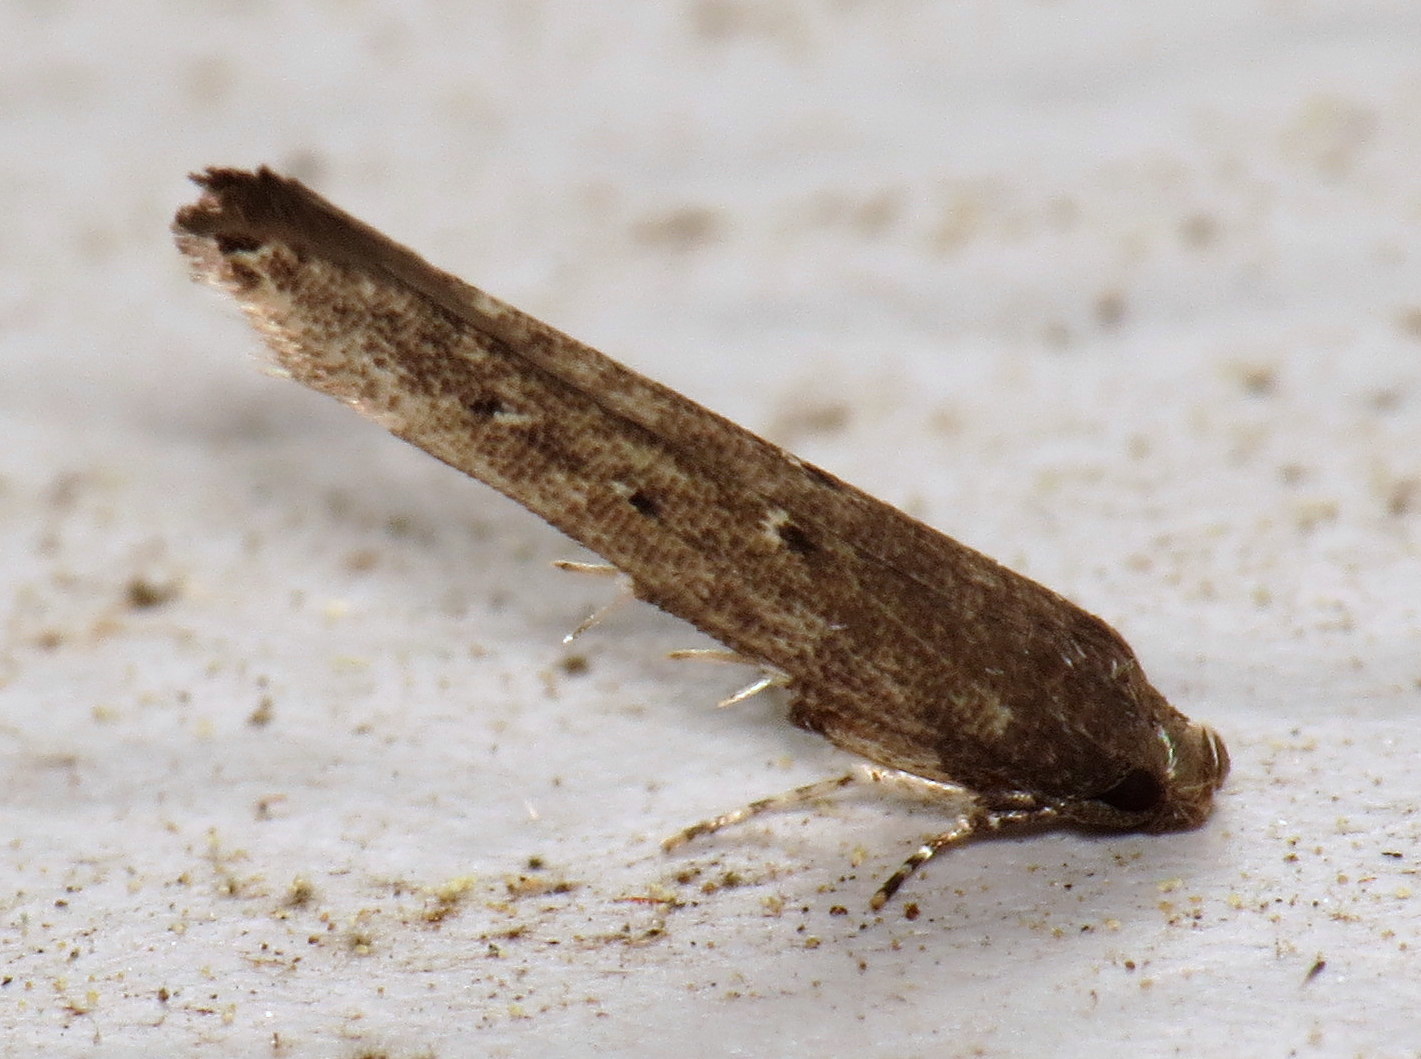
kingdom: Animalia
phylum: Arthropoda
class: Insecta
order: Lepidoptera
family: Cosmopterigidae
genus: Ithome
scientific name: Ithome erransella
